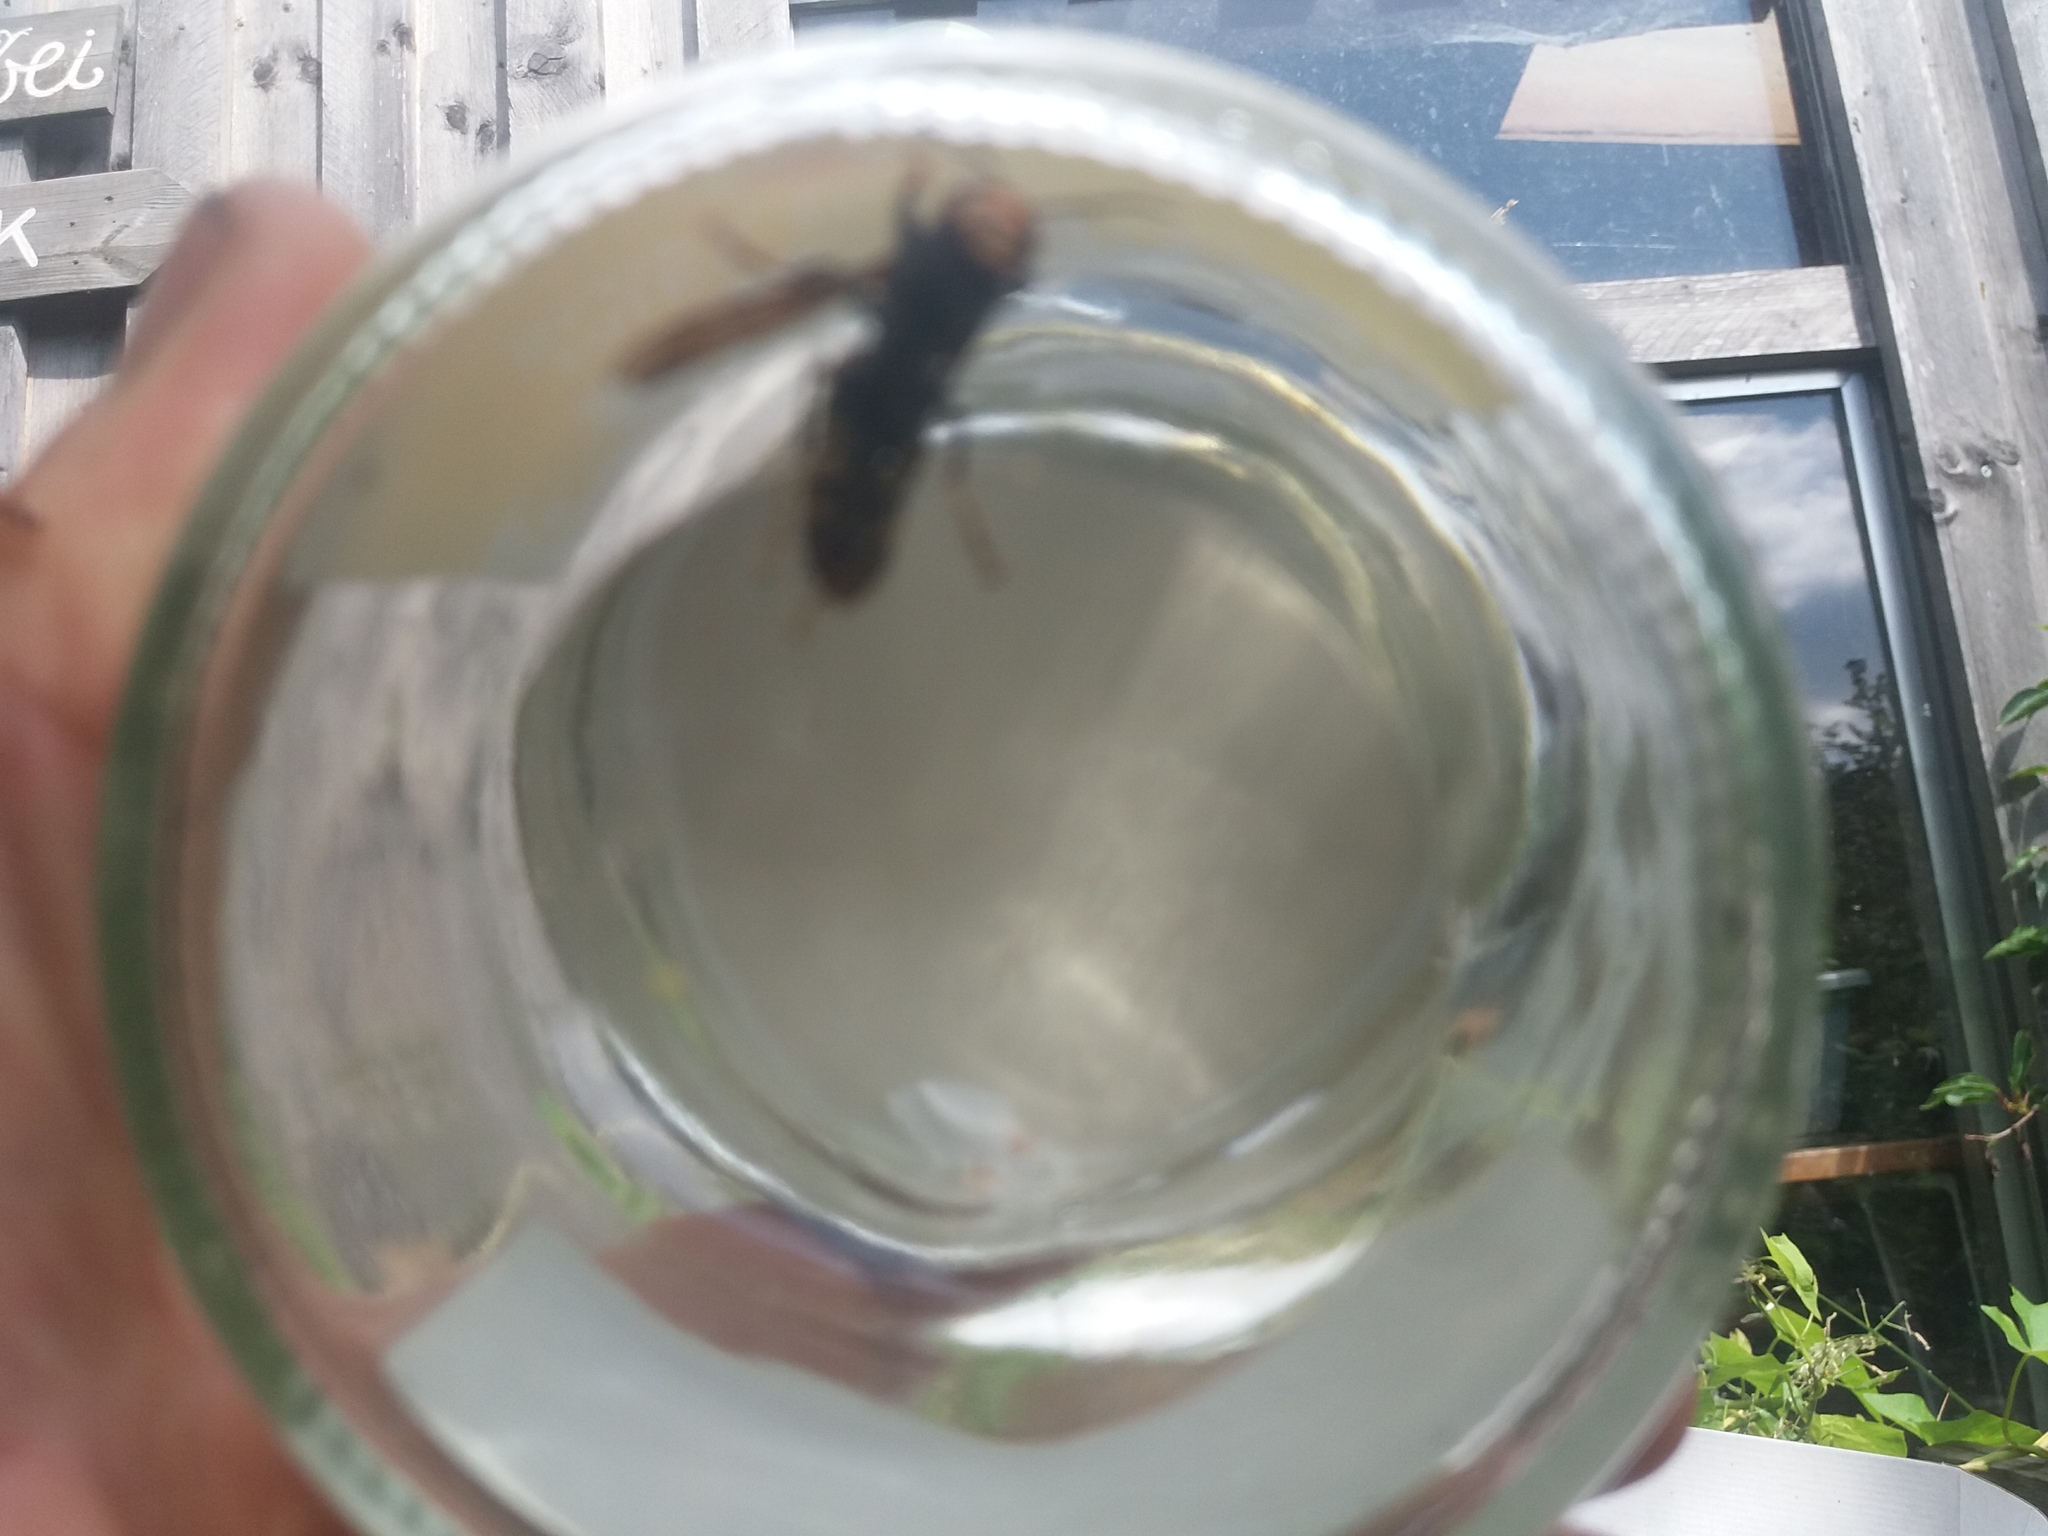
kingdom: Animalia
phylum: Arthropoda
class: Insecta
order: Hymenoptera
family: Vespidae
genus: Vespa
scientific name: Vespa velutina
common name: Asian hornet
